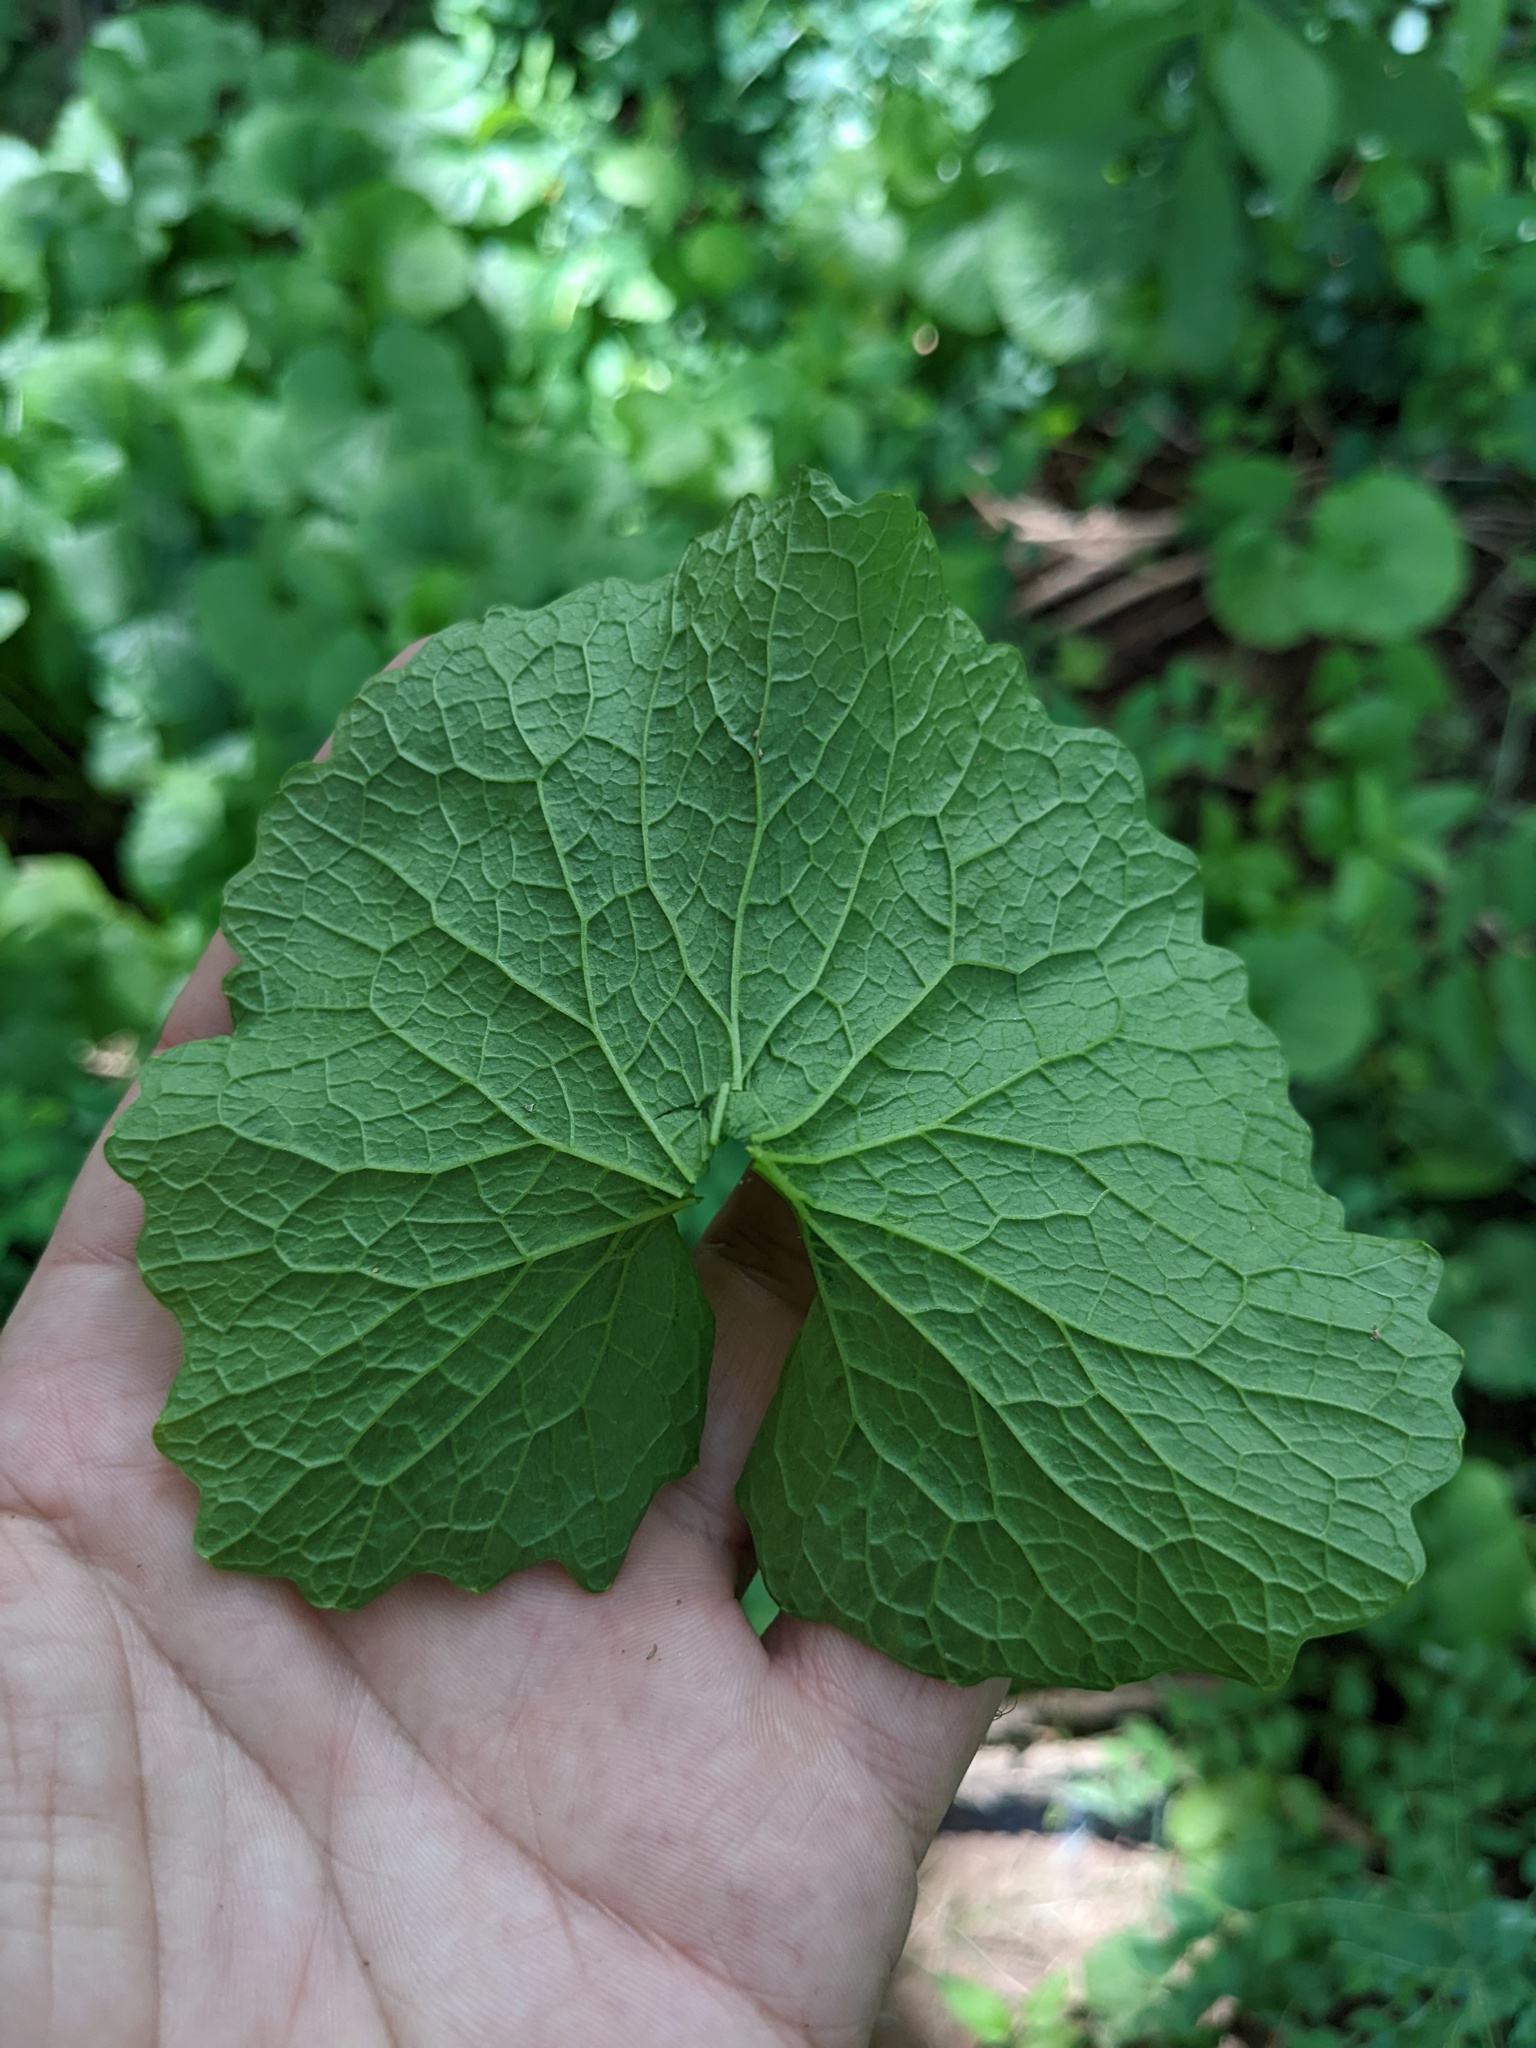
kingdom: Plantae
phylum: Tracheophyta
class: Magnoliopsida
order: Brassicales
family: Brassicaceae
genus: Alliaria
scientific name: Alliaria petiolata
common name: Garlic mustard
